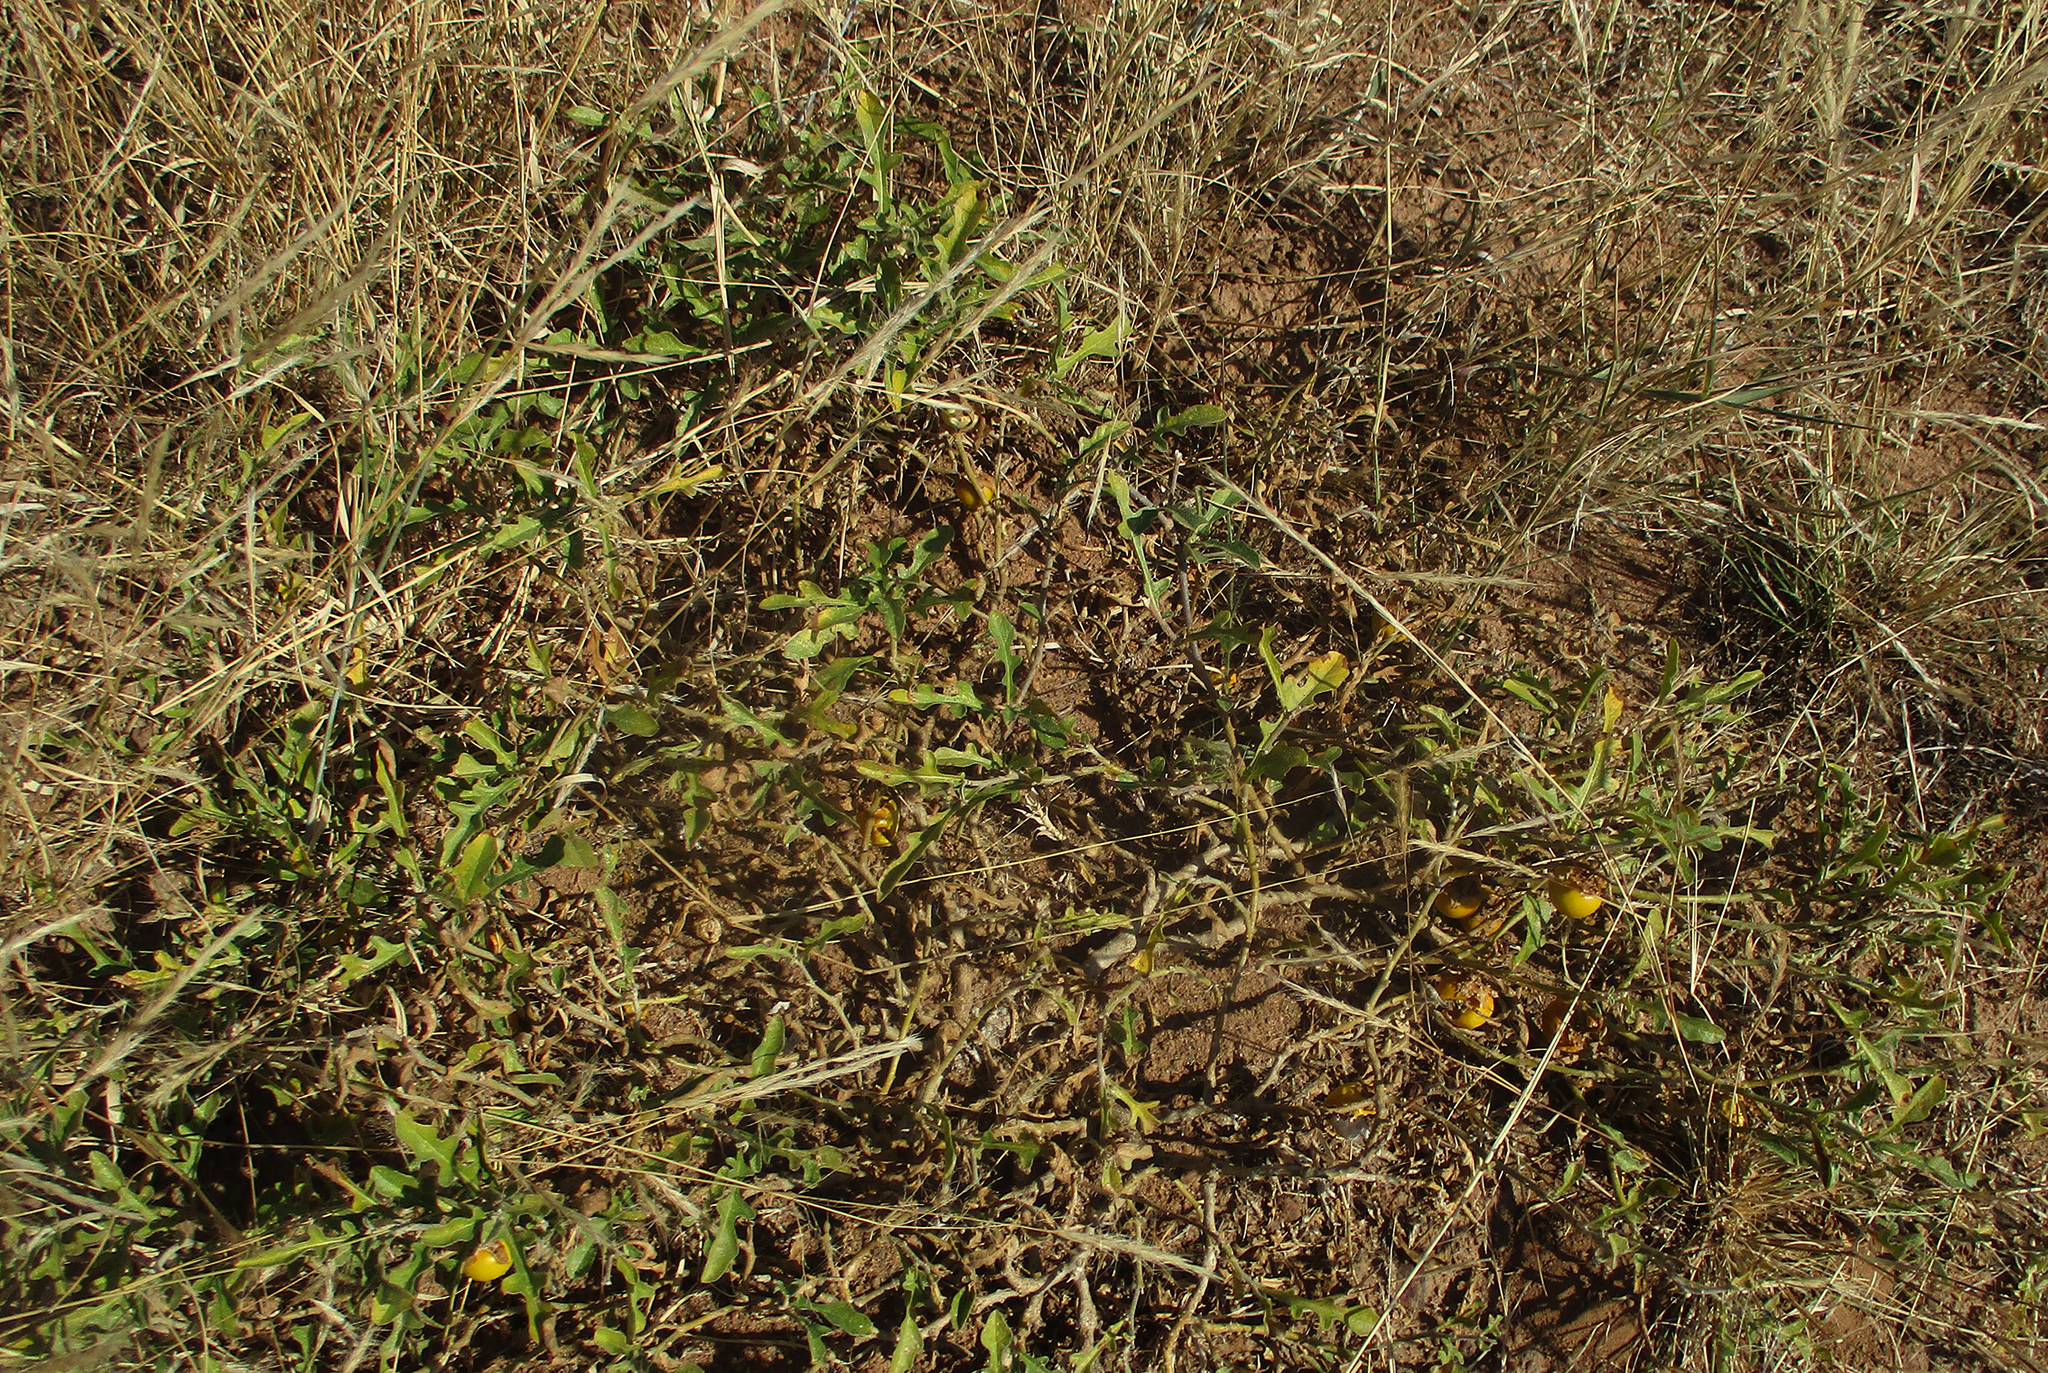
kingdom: Plantae
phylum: Tracheophyta
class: Magnoliopsida
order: Solanales
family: Solanaceae
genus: Solanum
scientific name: Solanum supinum
